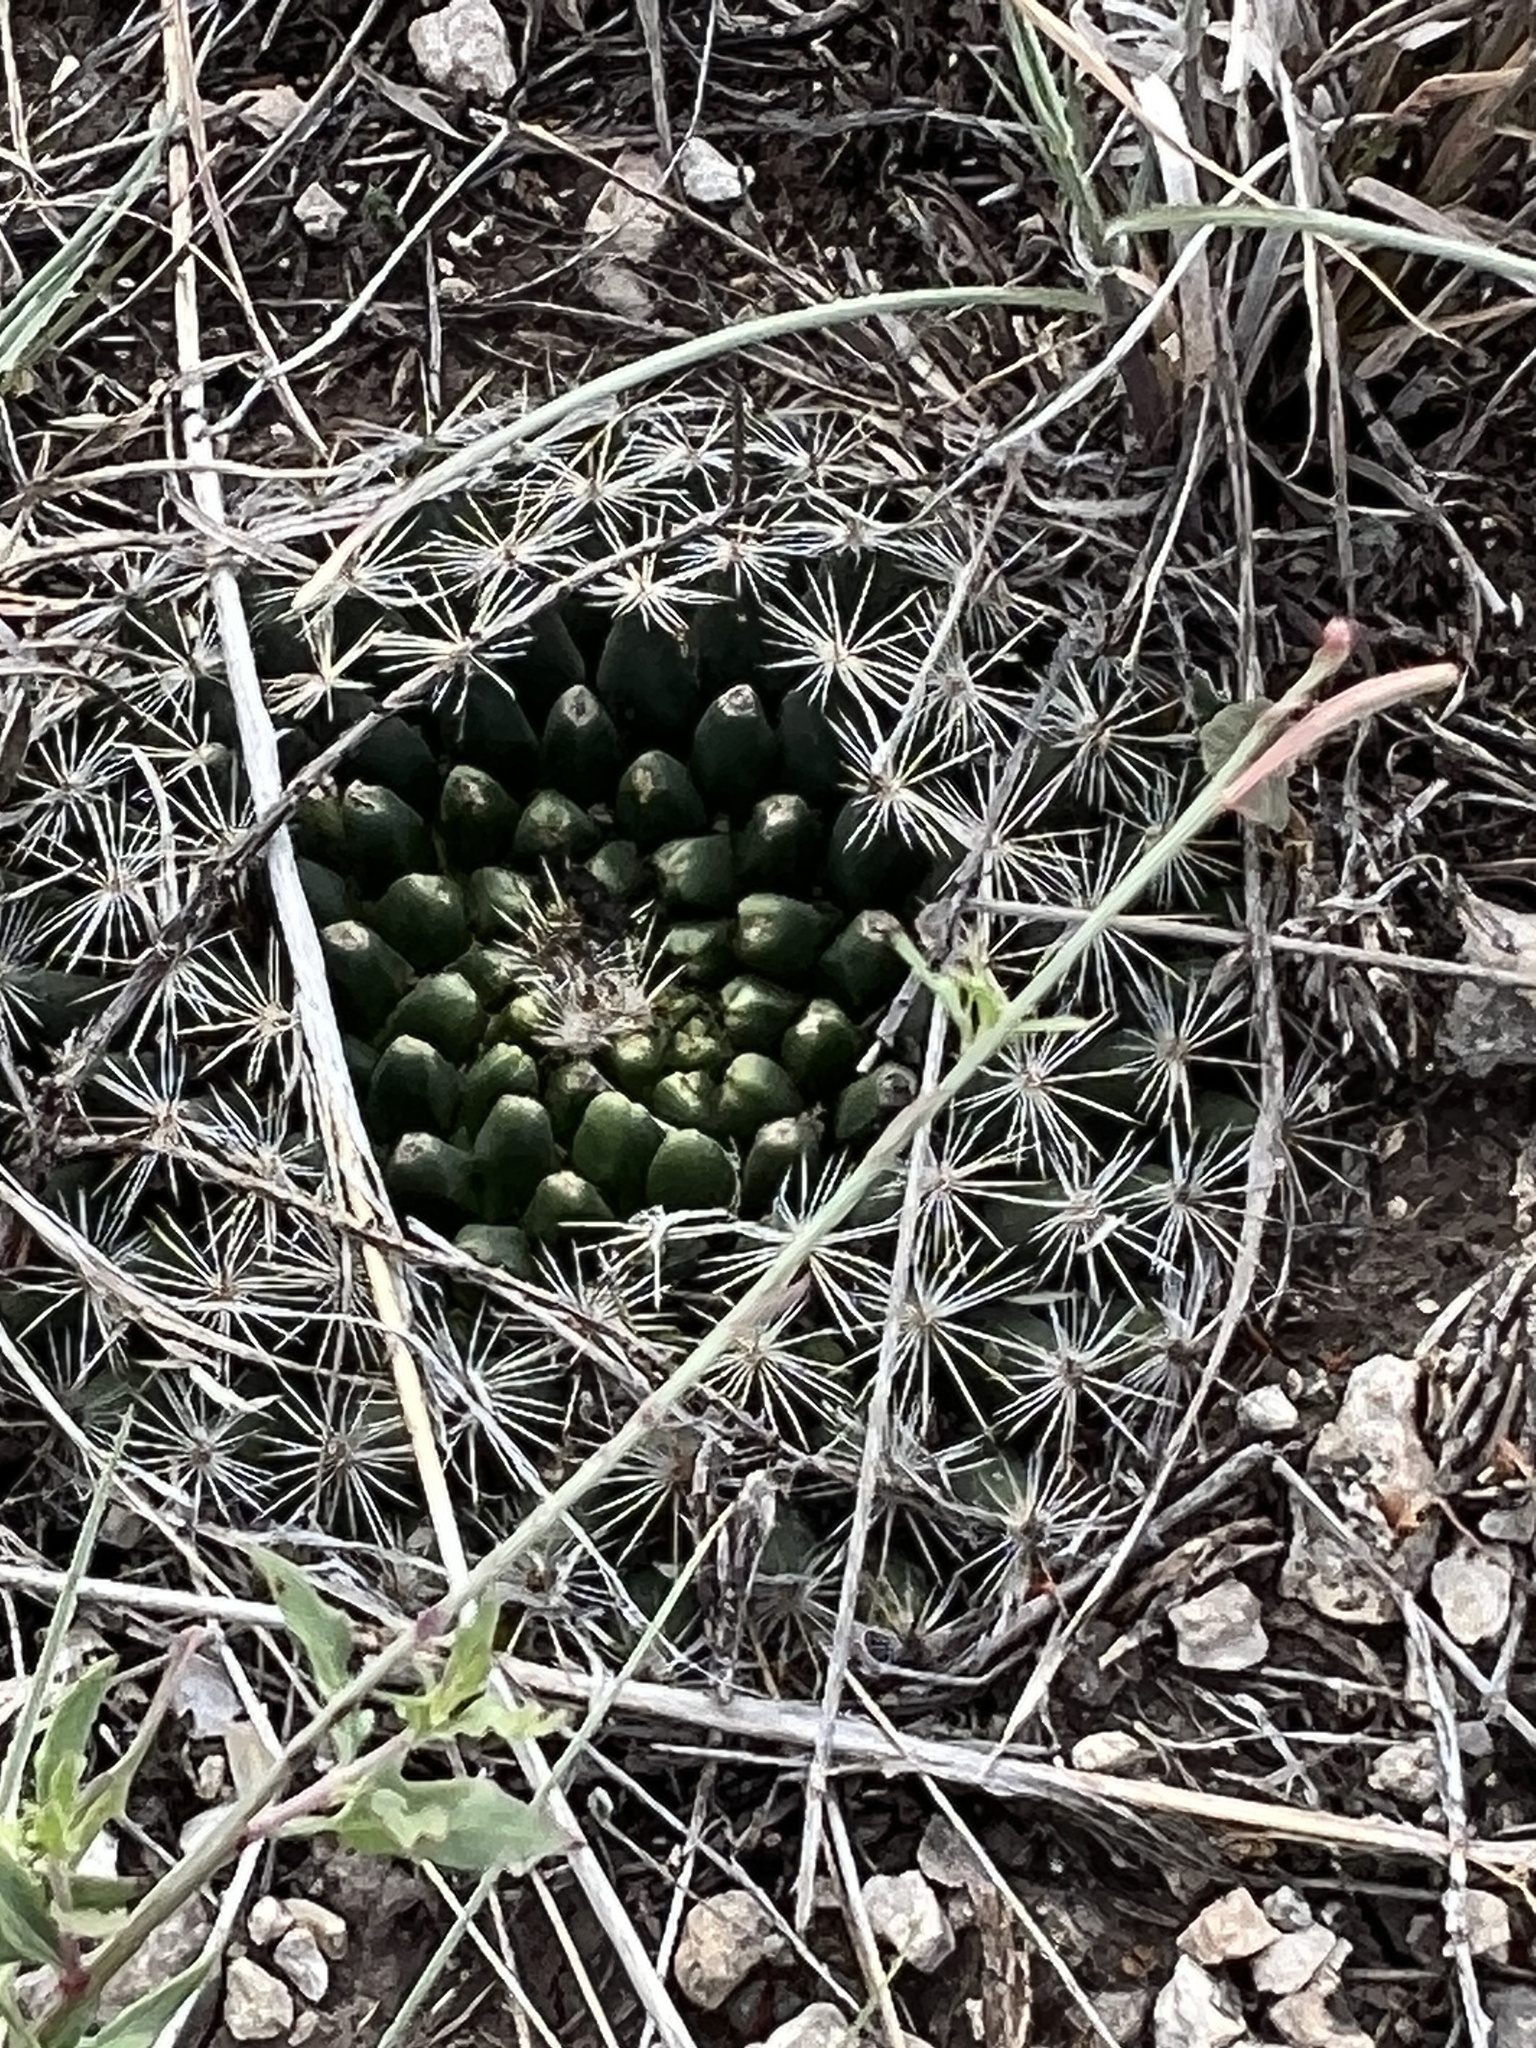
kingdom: Plantae
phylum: Tracheophyta
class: Magnoliopsida
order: Caryophyllales
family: Cactaceae
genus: Mammillaria
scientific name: Mammillaria heyderi
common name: Little nipple cactus
